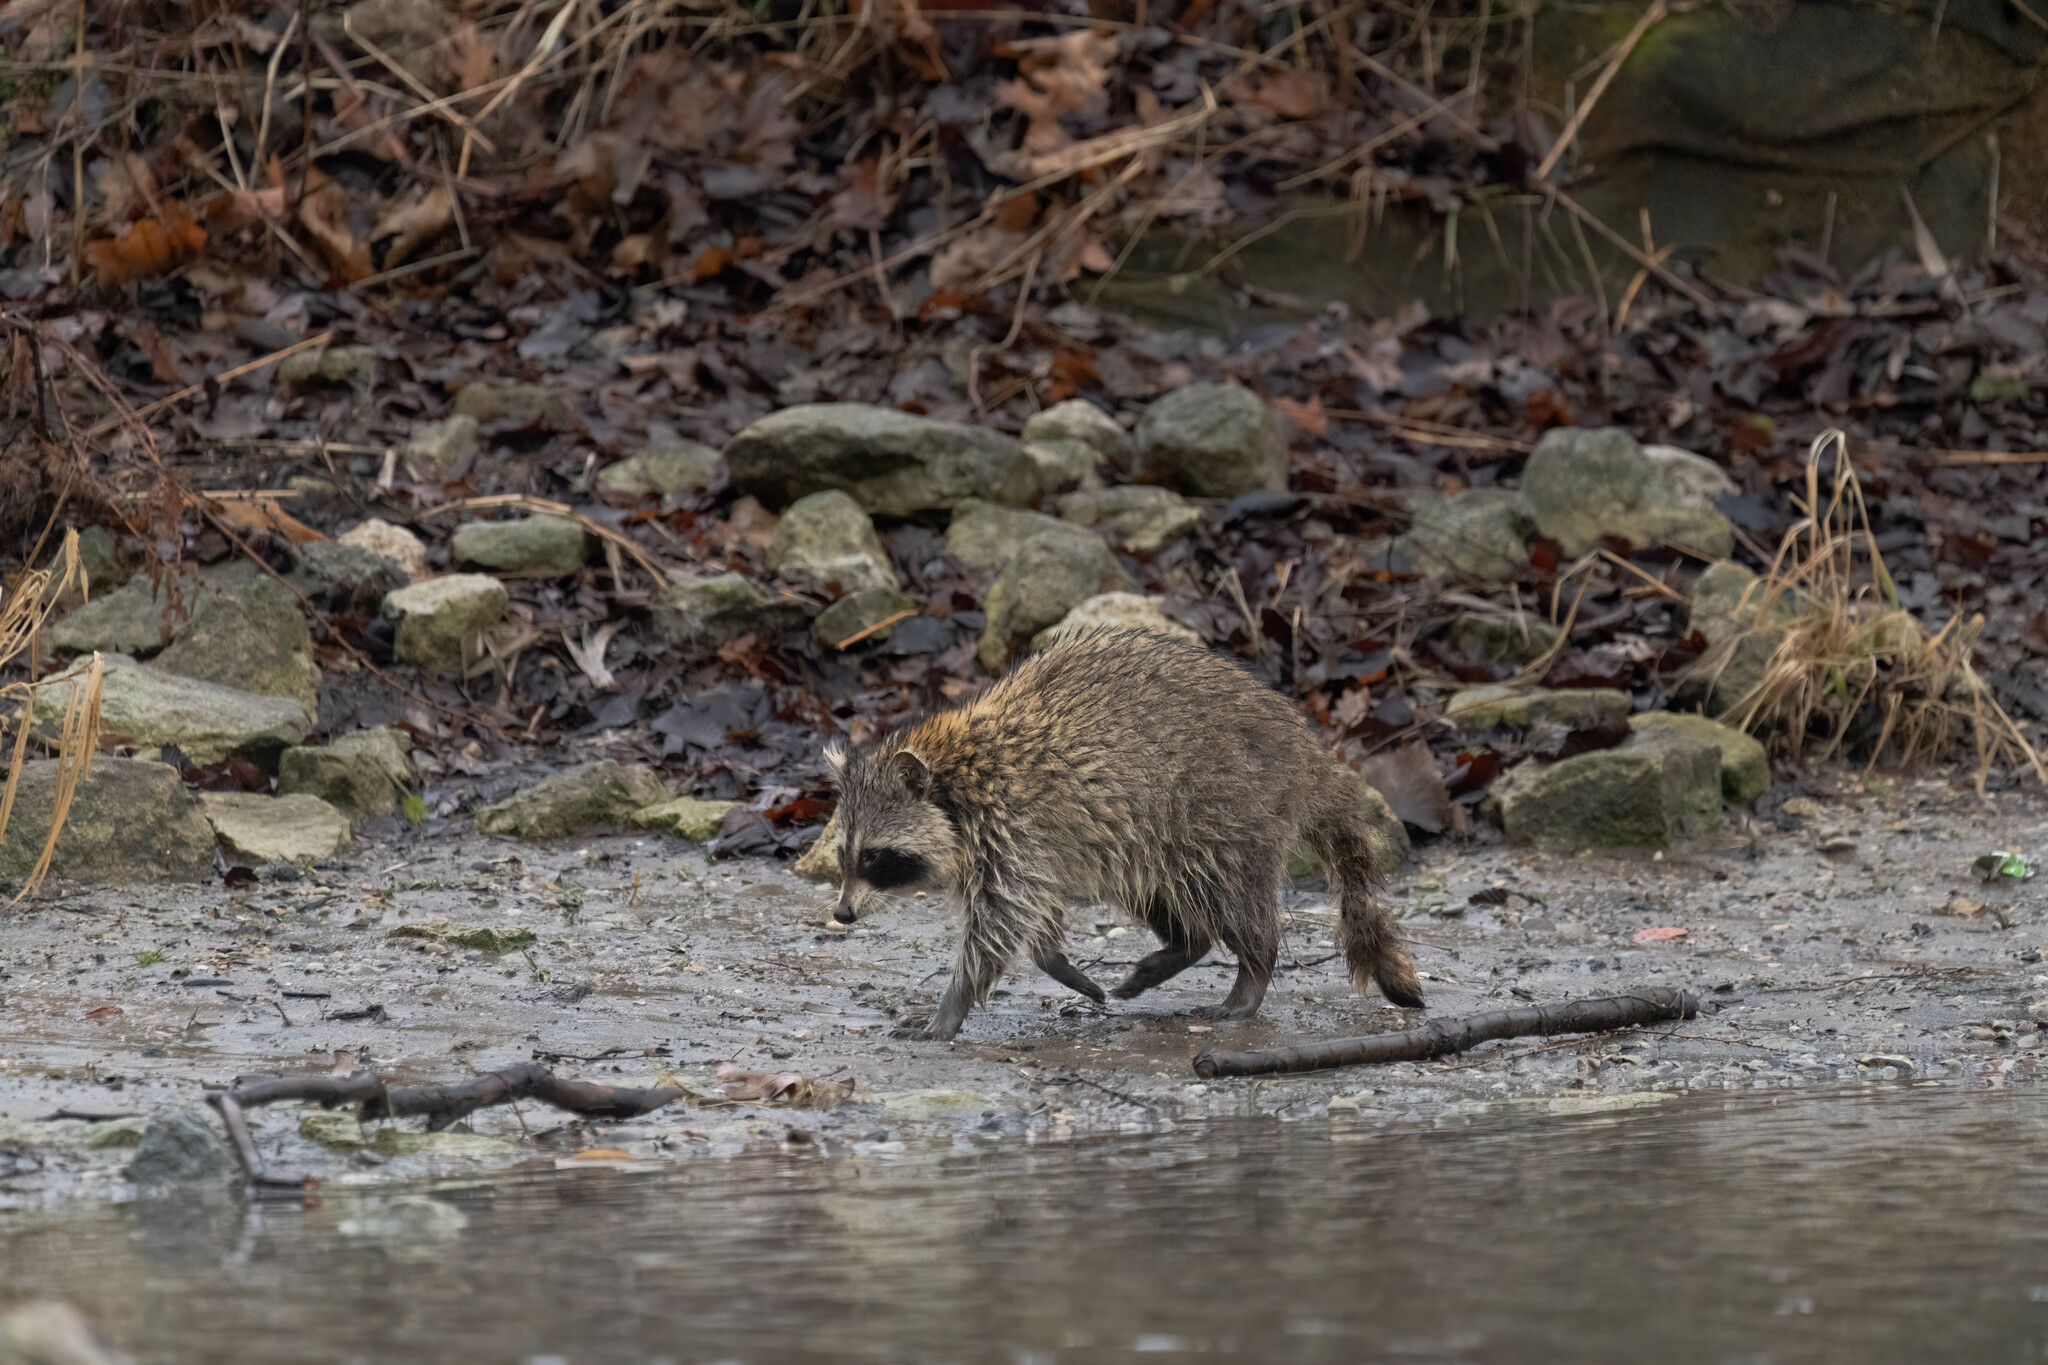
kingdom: Animalia
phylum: Chordata
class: Mammalia
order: Carnivora
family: Procyonidae
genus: Procyon
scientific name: Procyon lotor
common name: Raccoon
